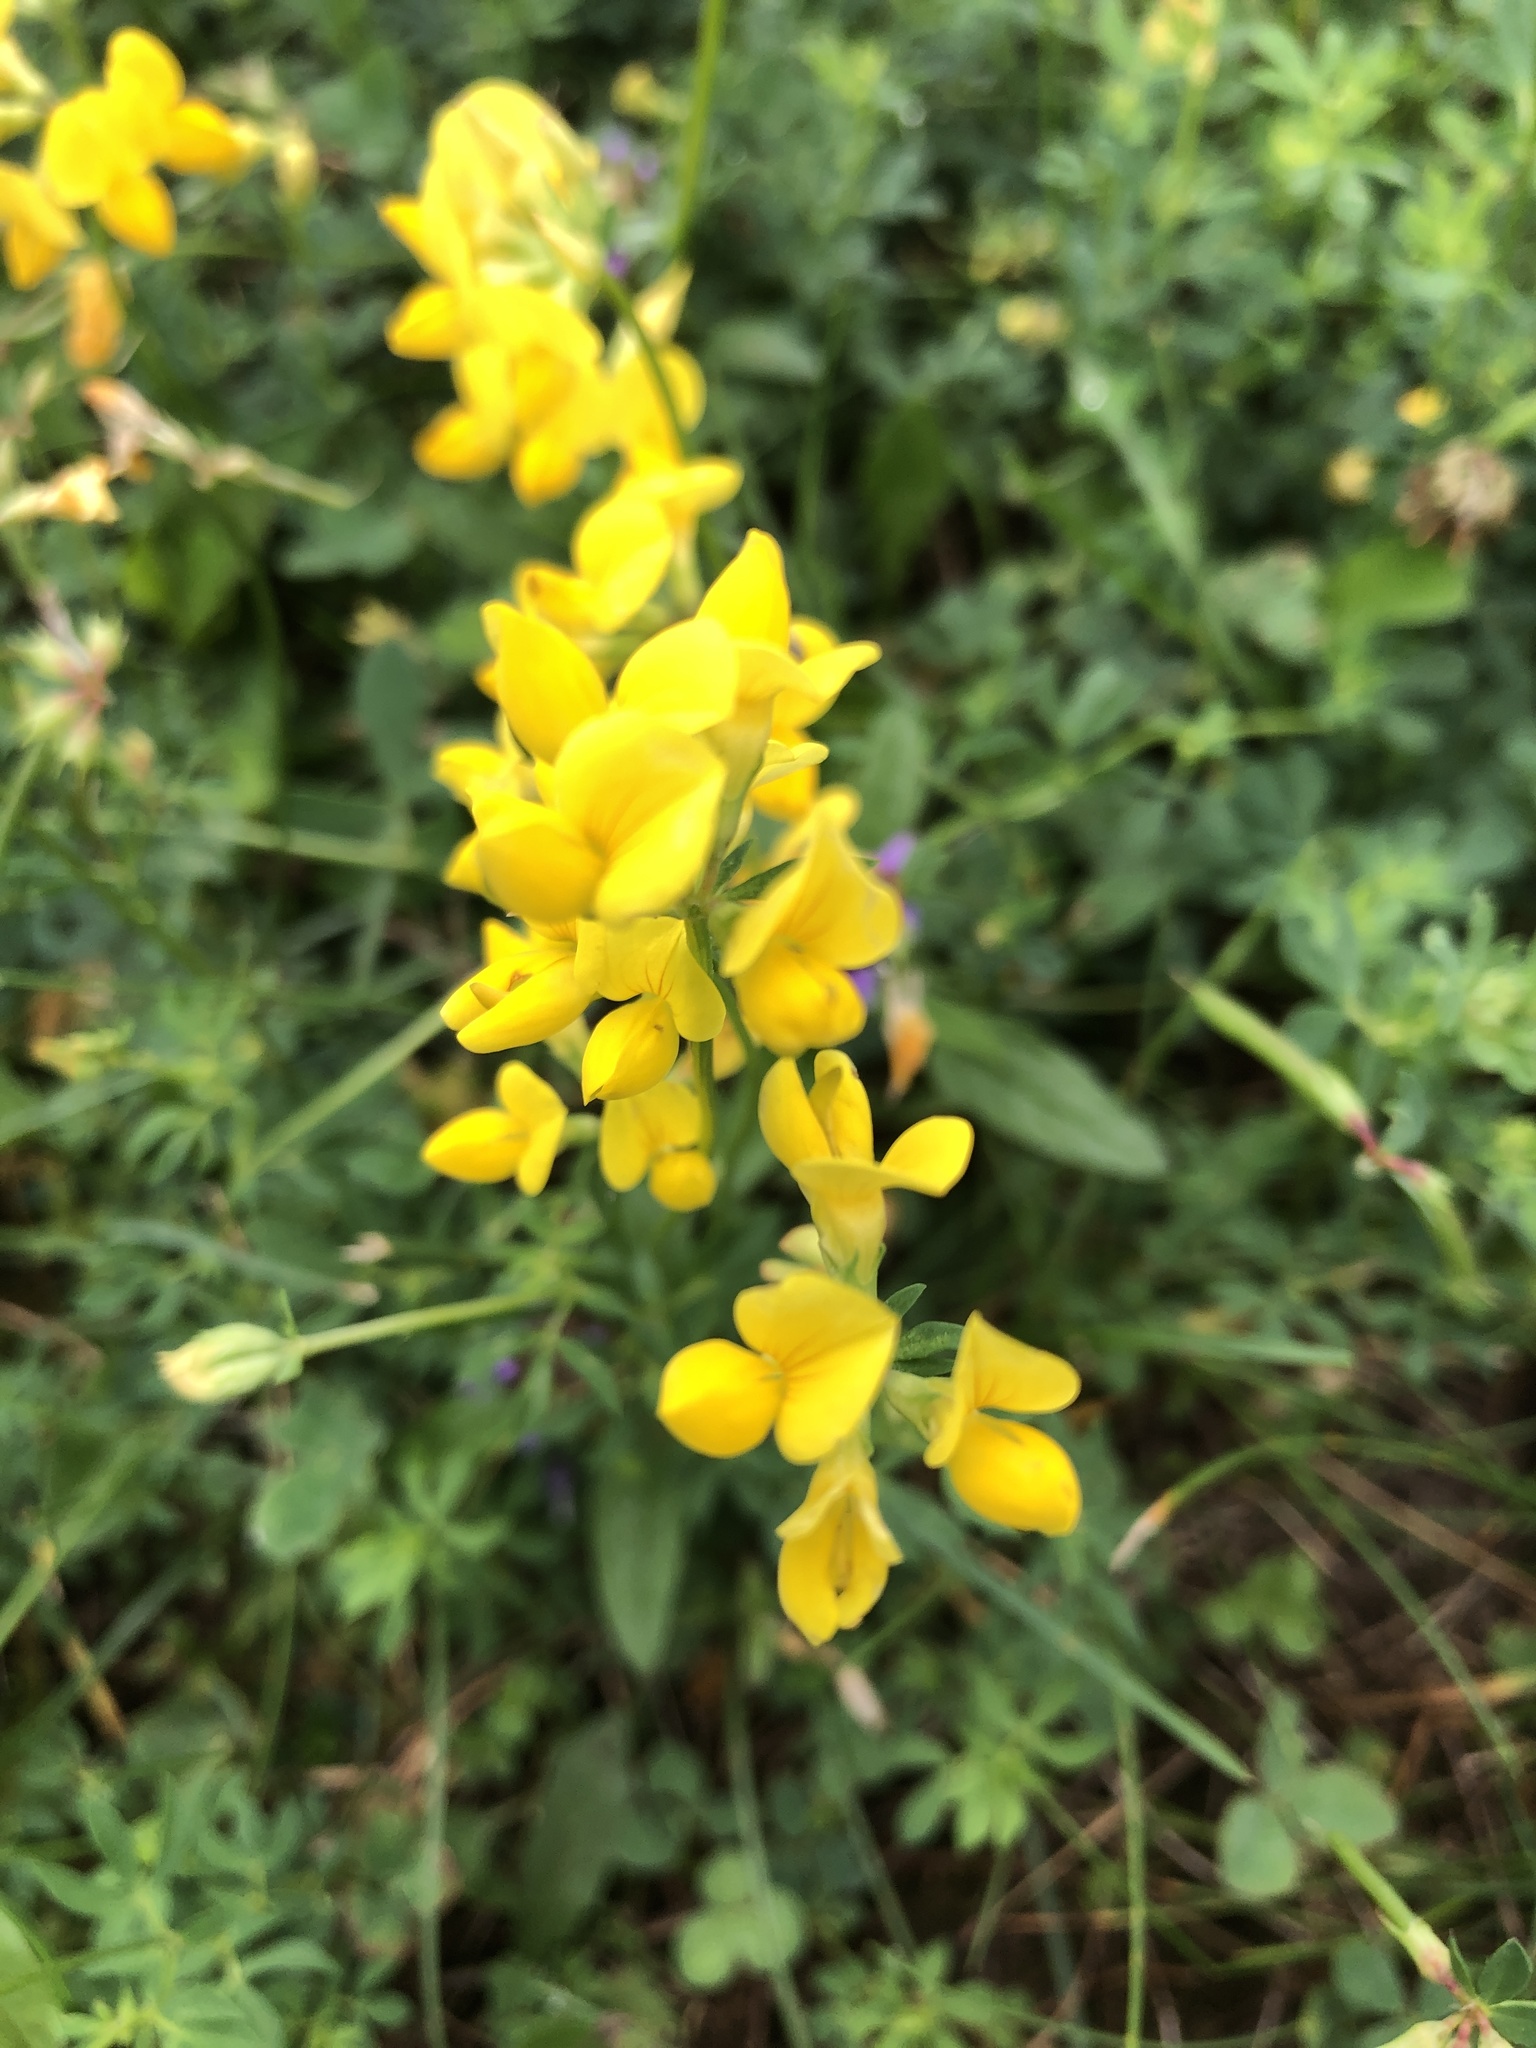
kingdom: Plantae
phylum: Tracheophyta
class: Magnoliopsida
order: Fabales
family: Fabaceae
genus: Lotus
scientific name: Lotus corniculatus
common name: Common bird's-foot-trefoil
